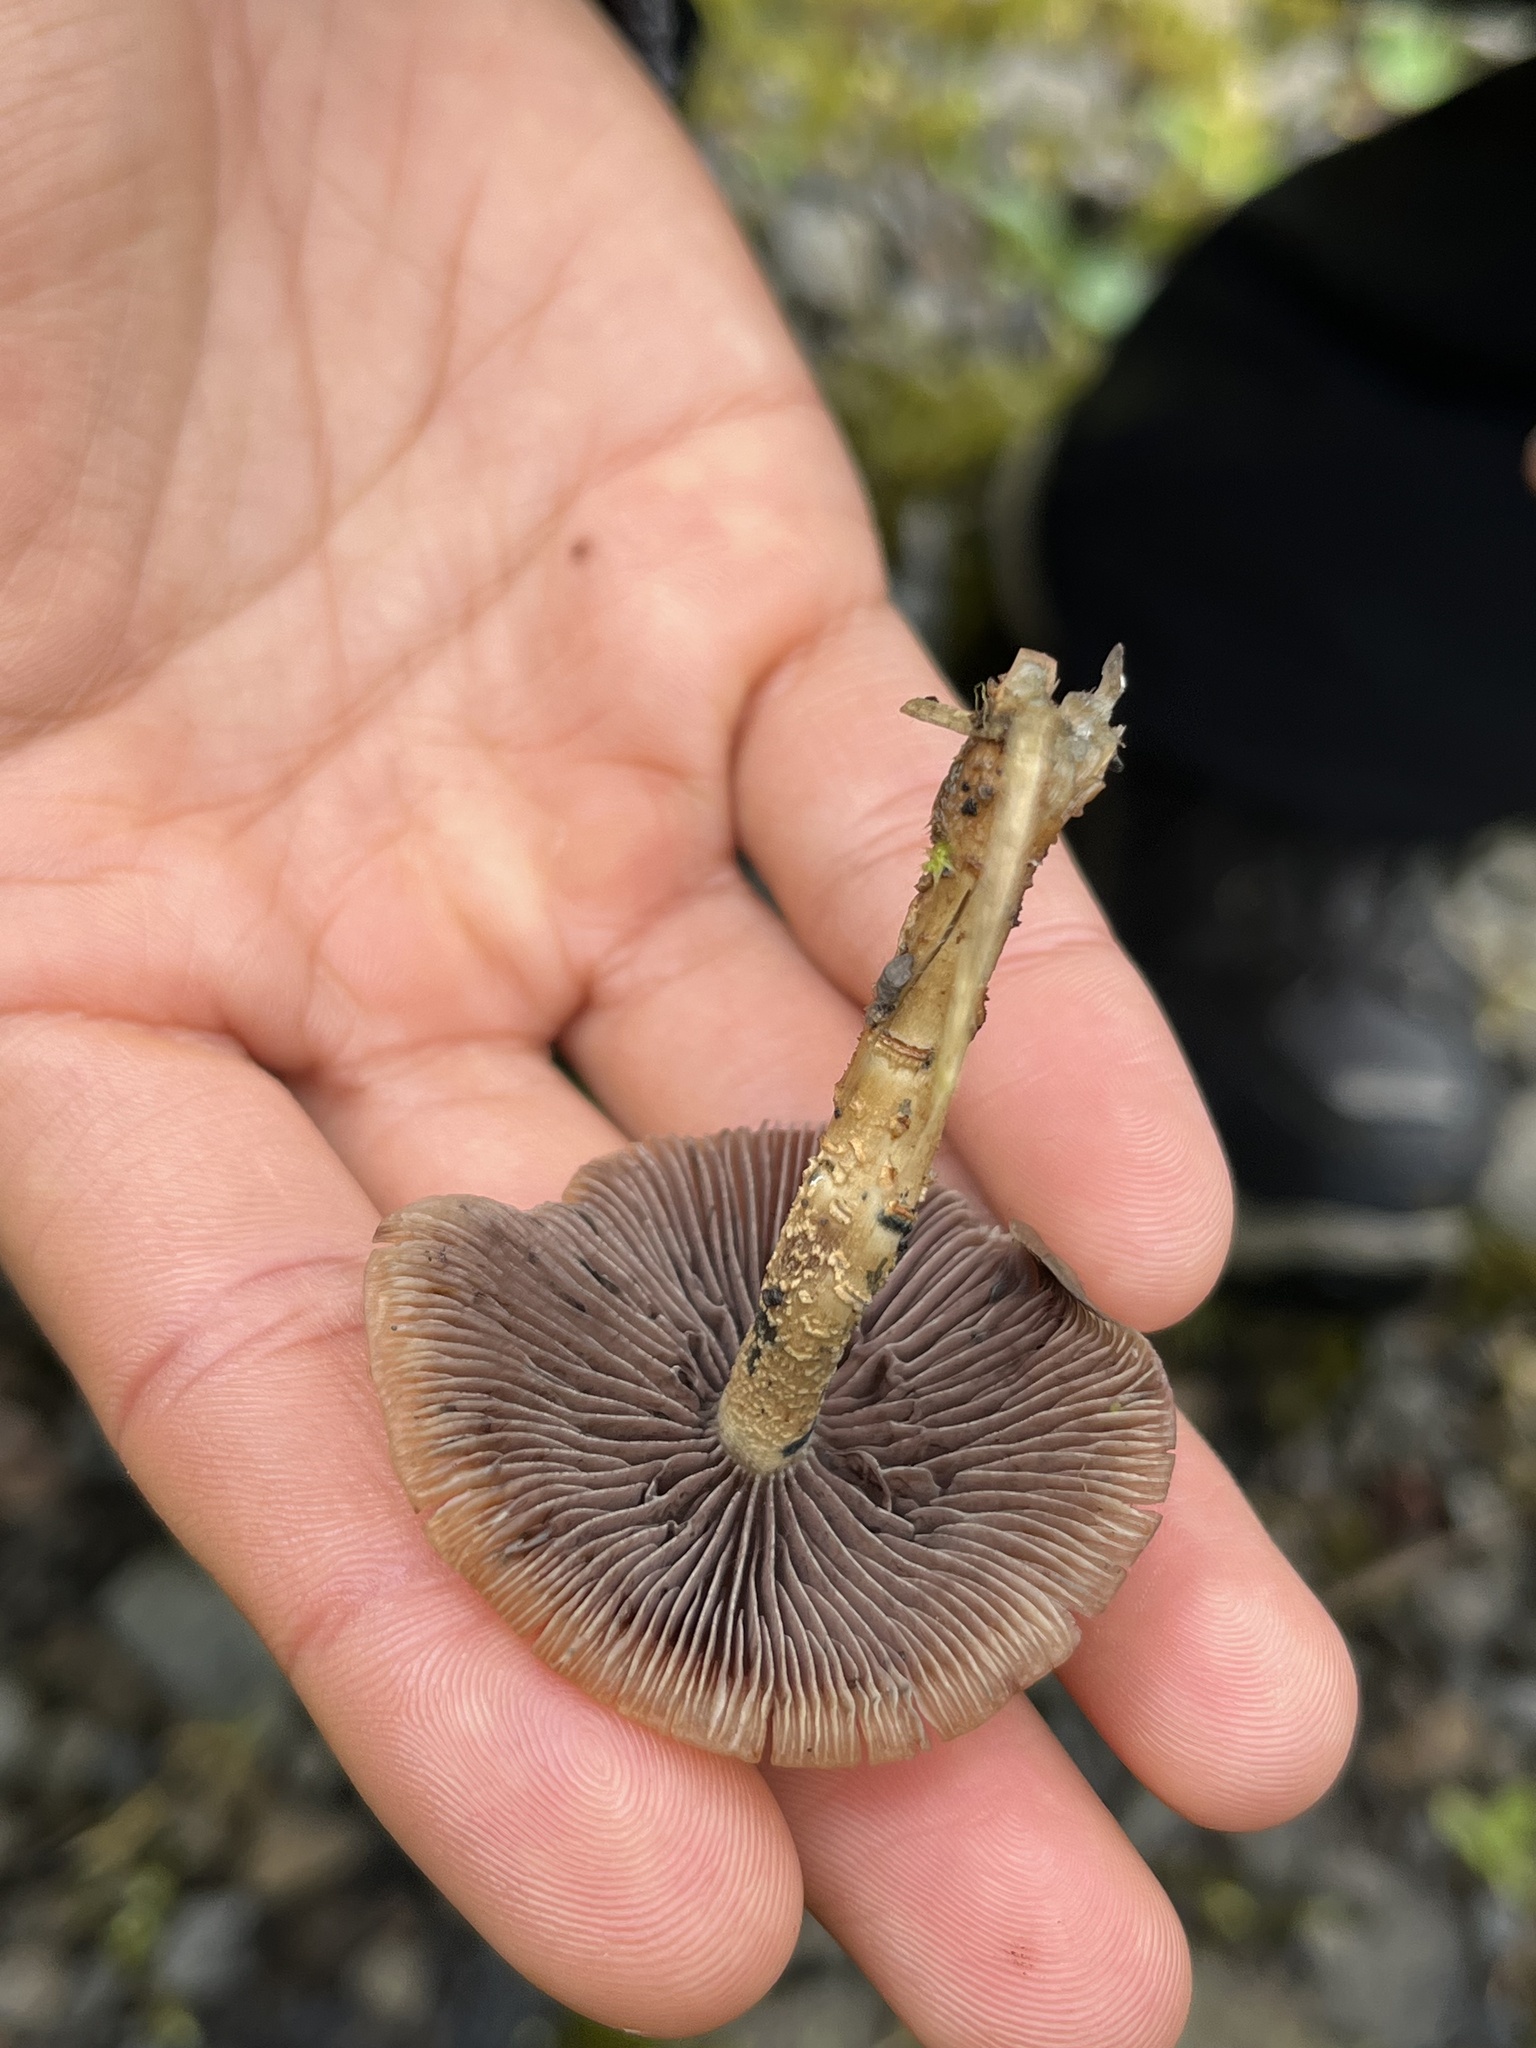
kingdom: Fungi
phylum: Basidiomycota
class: Agaricomycetes
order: Agaricales
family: Hymenogastraceae
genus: Psilocybe
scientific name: Psilocybe zapotecorum
